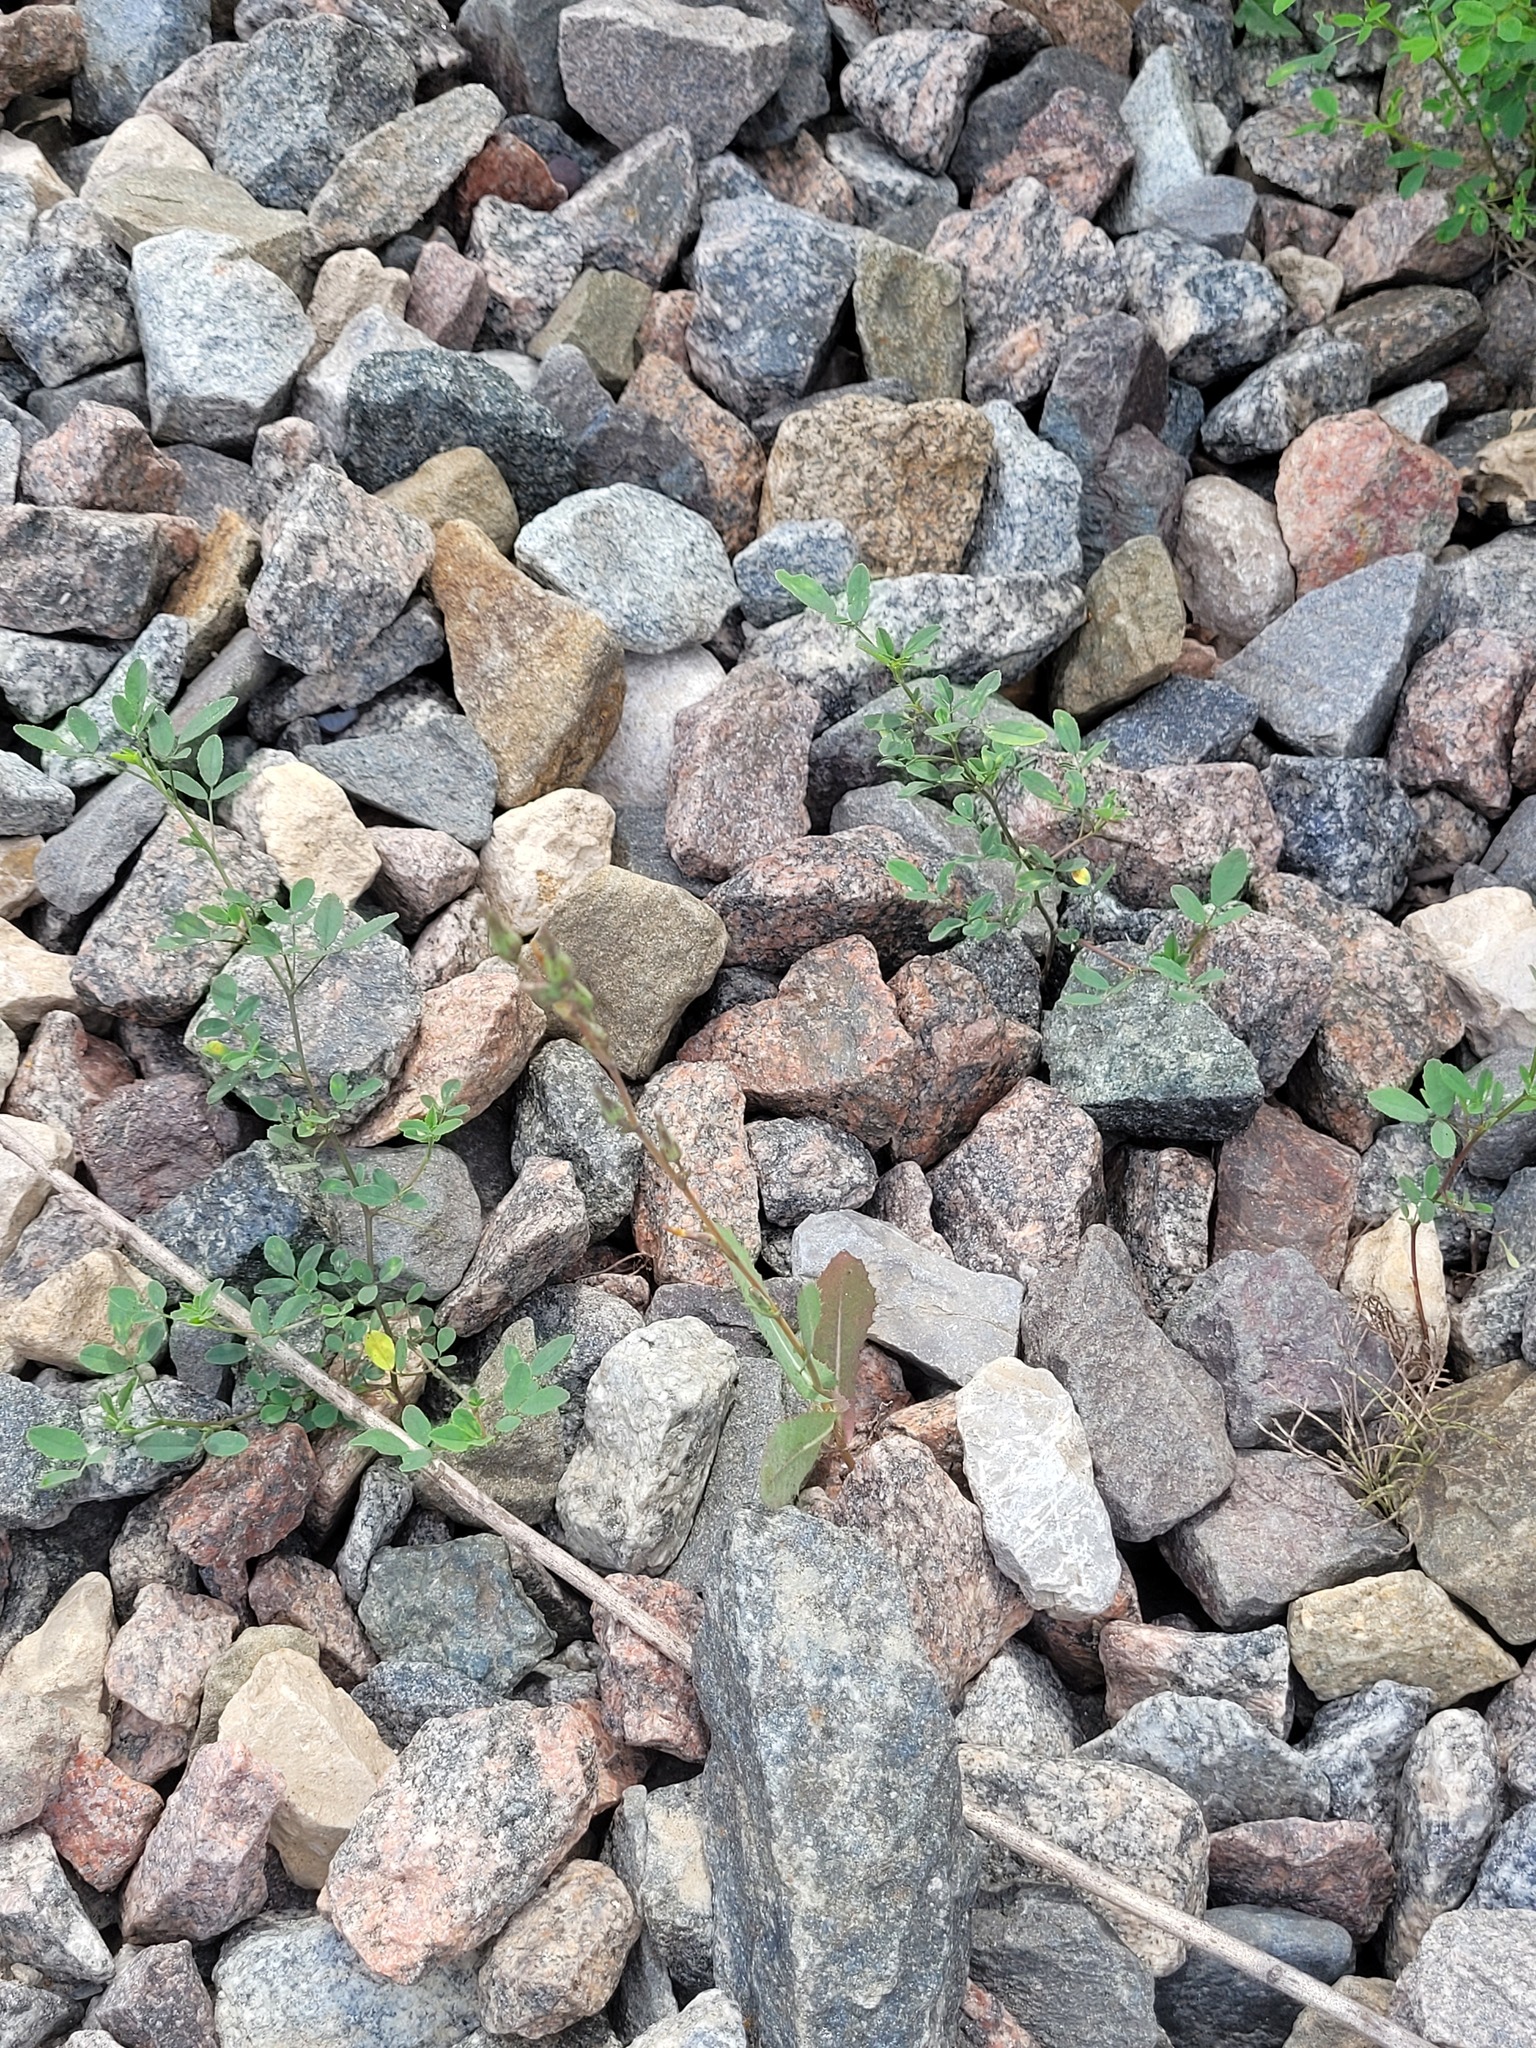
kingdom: Plantae
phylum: Tracheophyta
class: Magnoliopsida
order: Asterales
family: Asteraceae
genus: Lactuca
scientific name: Lactuca serriola
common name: Prickly lettuce
